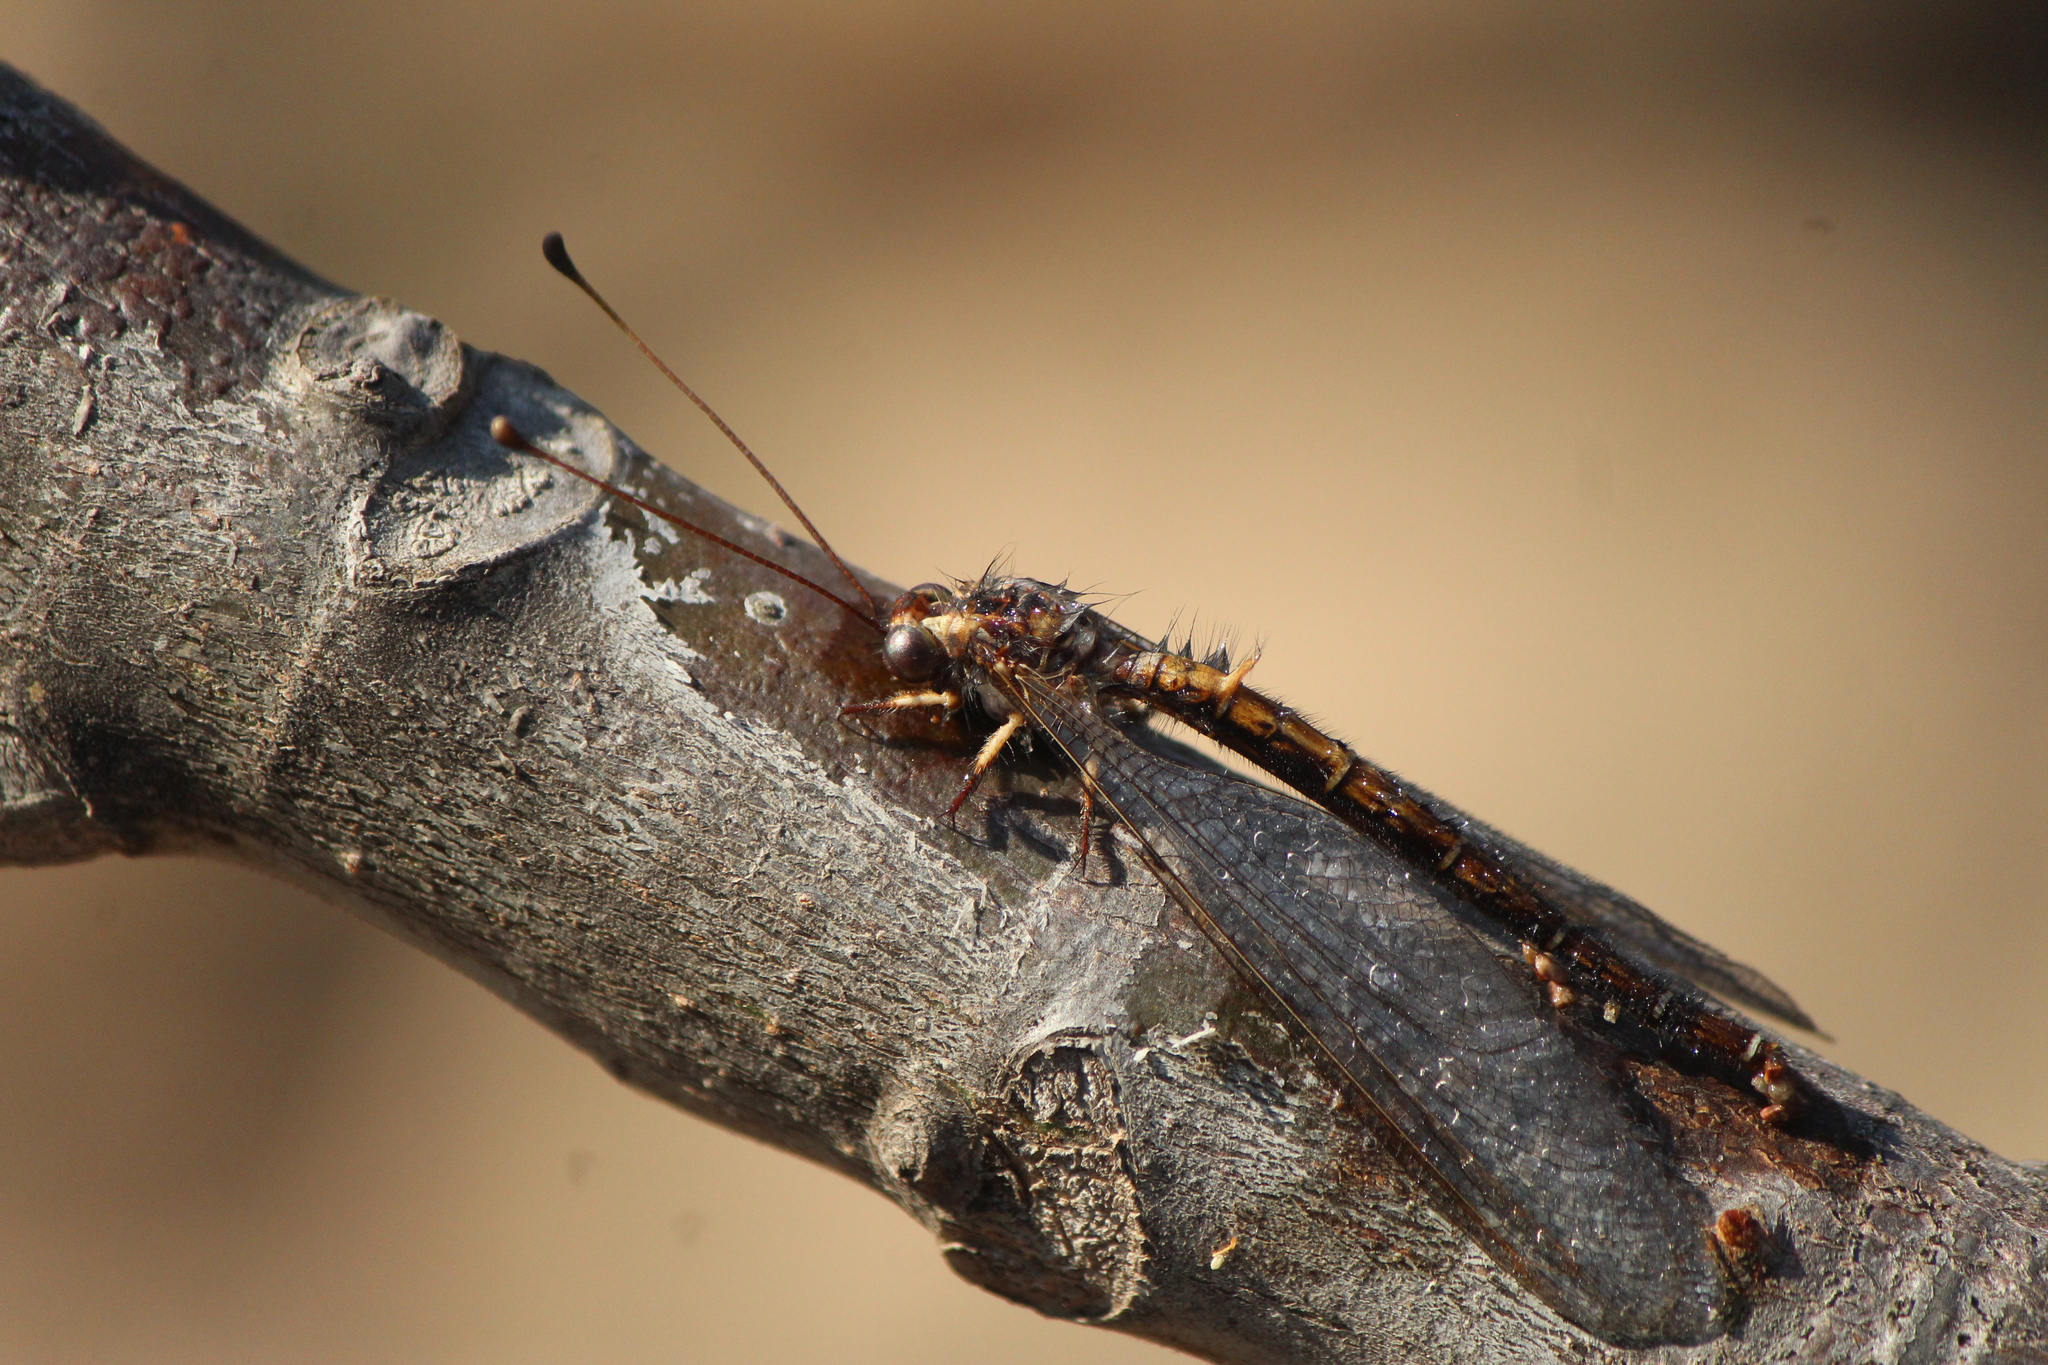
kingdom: Animalia
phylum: Arthropoda
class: Insecta
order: Neuroptera
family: Ascalaphidae
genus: Ascalobyas
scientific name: Ascalobyas albistigma
